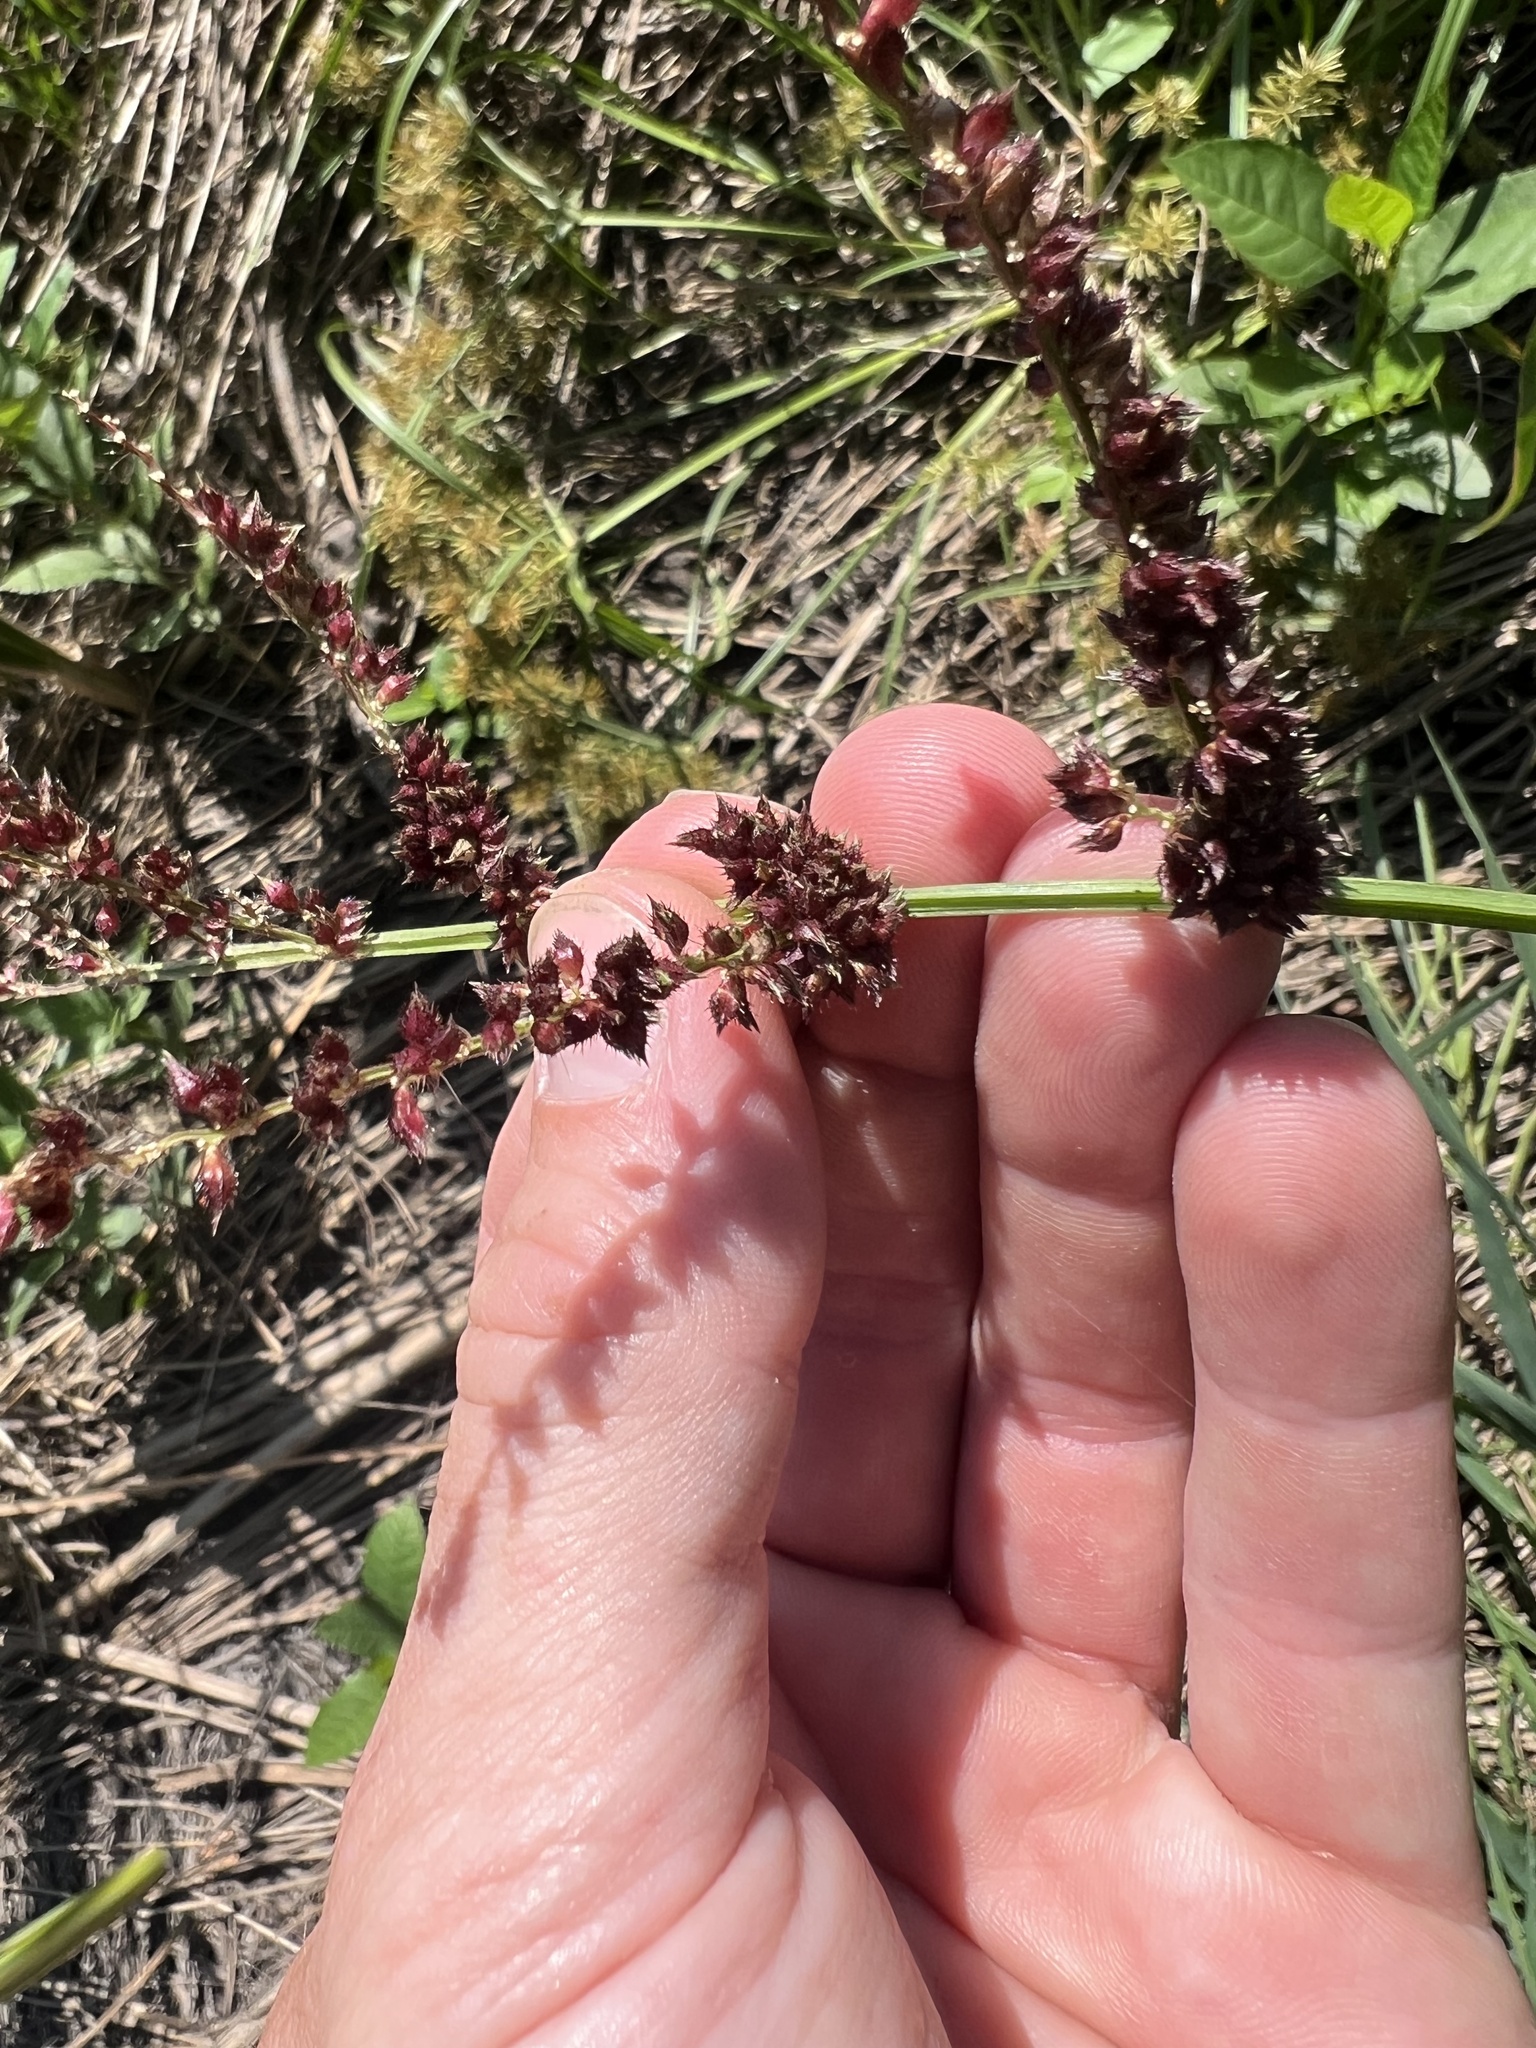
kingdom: Plantae
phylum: Tracheophyta
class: Liliopsida
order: Poales
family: Poaceae
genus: Echinochloa
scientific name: Echinochloa
